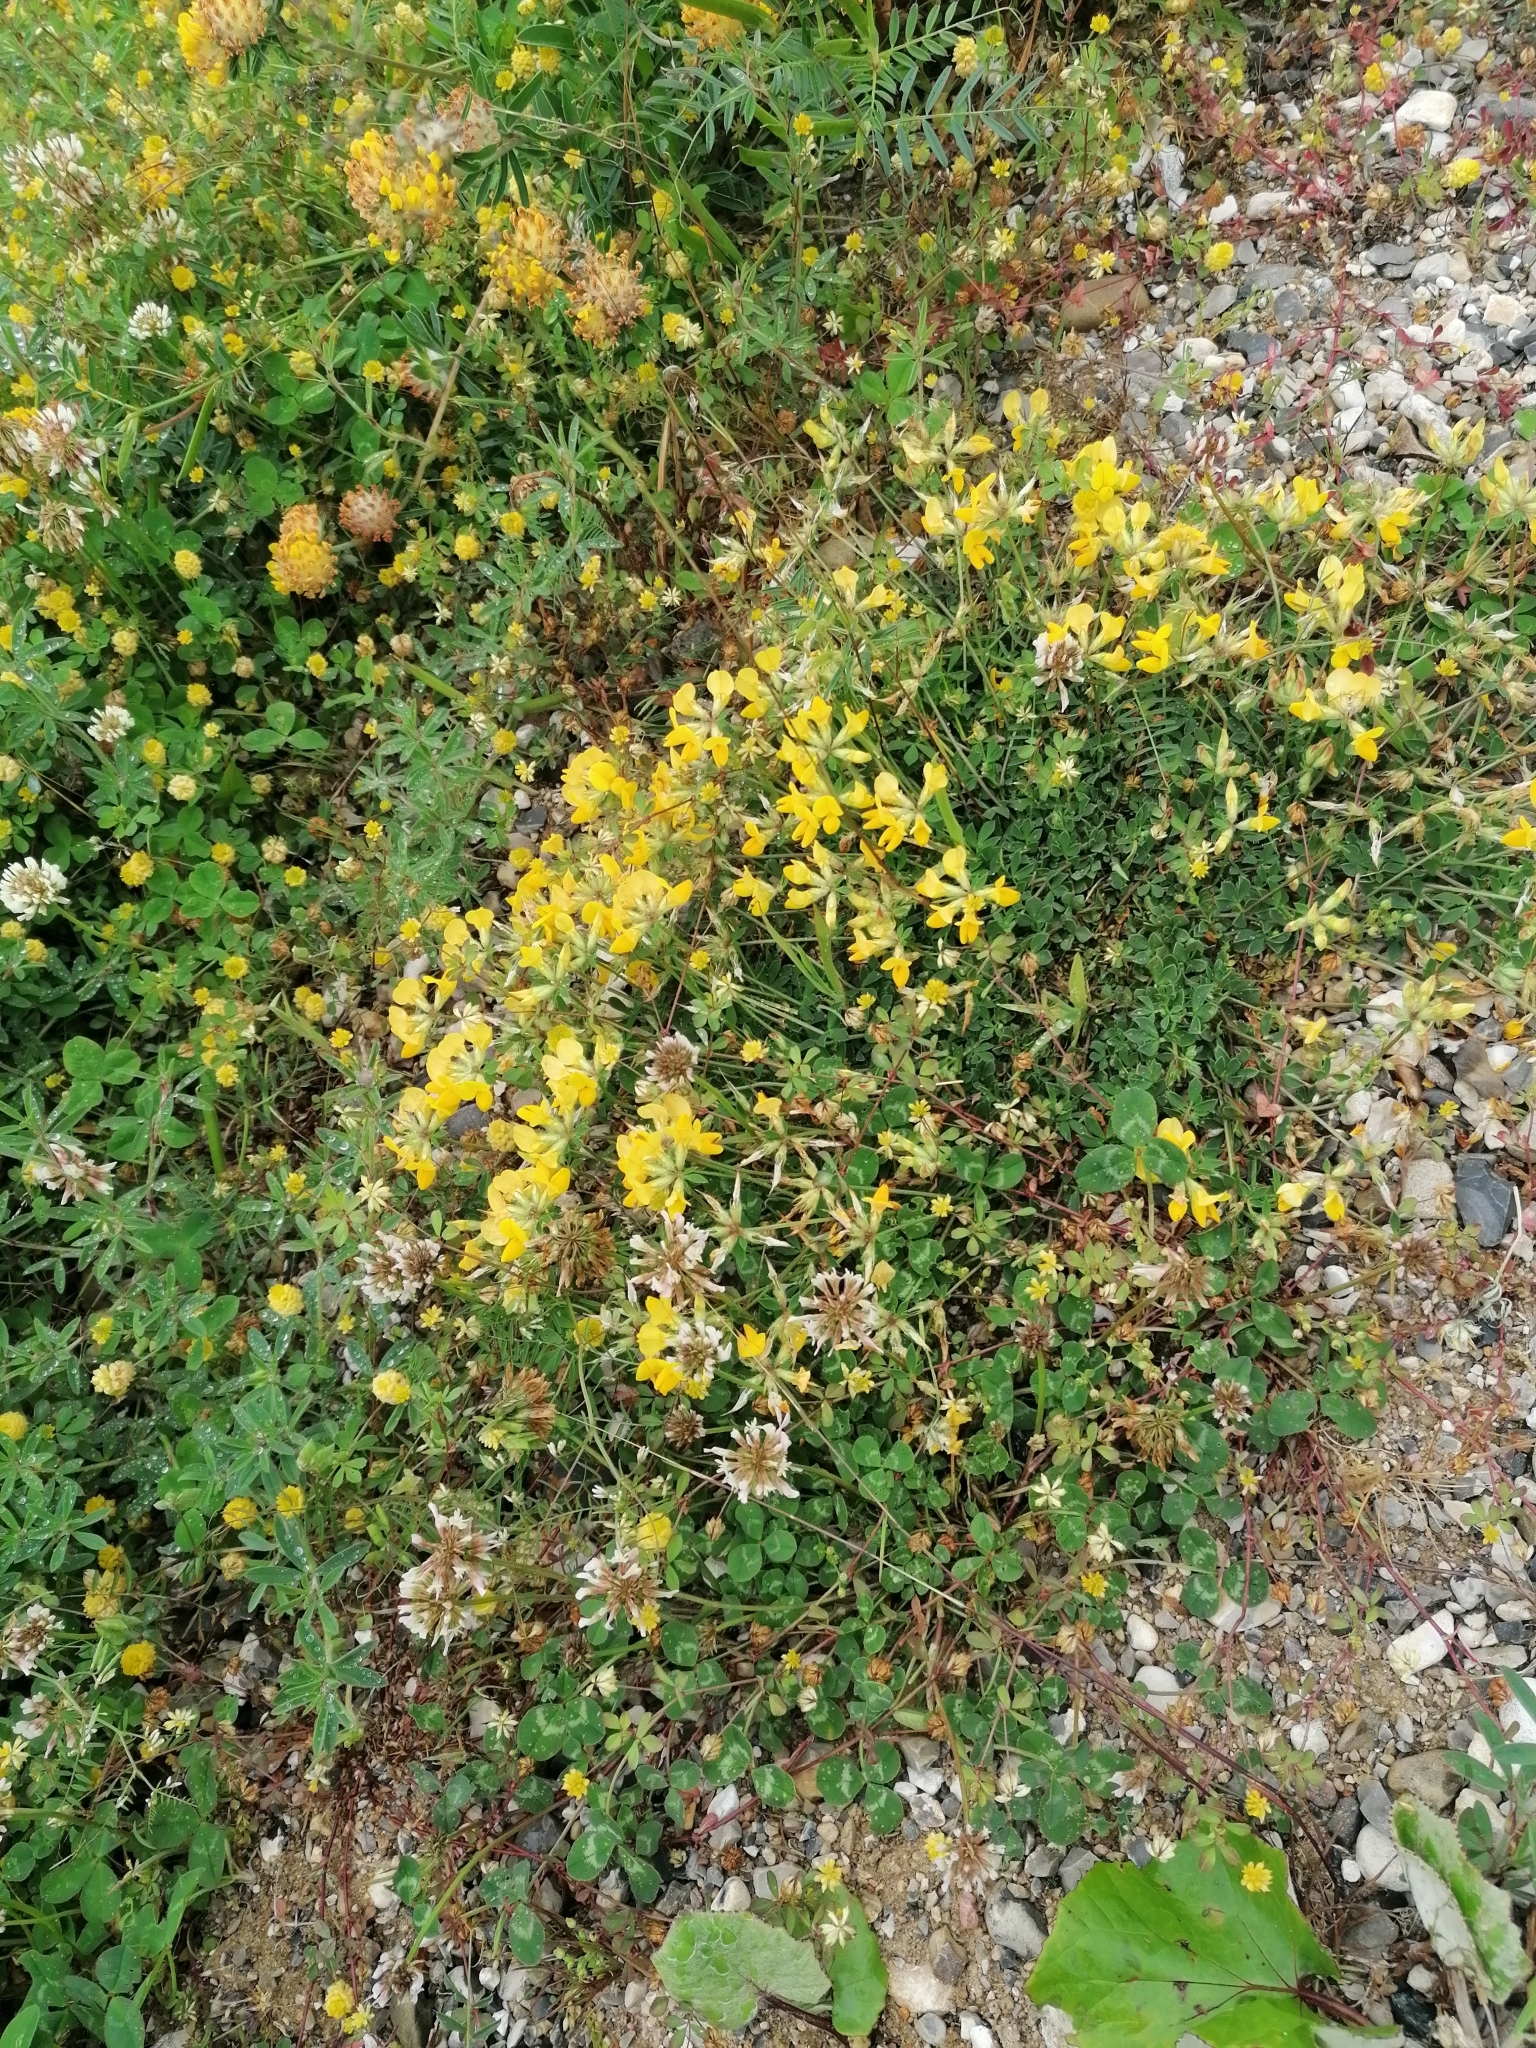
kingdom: Plantae
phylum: Tracheophyta
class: Magnoliopsida
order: Fabales
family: Fabaceae
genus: Lotus
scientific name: Lotus corniculatus
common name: Common bird's-foot-trefoil
